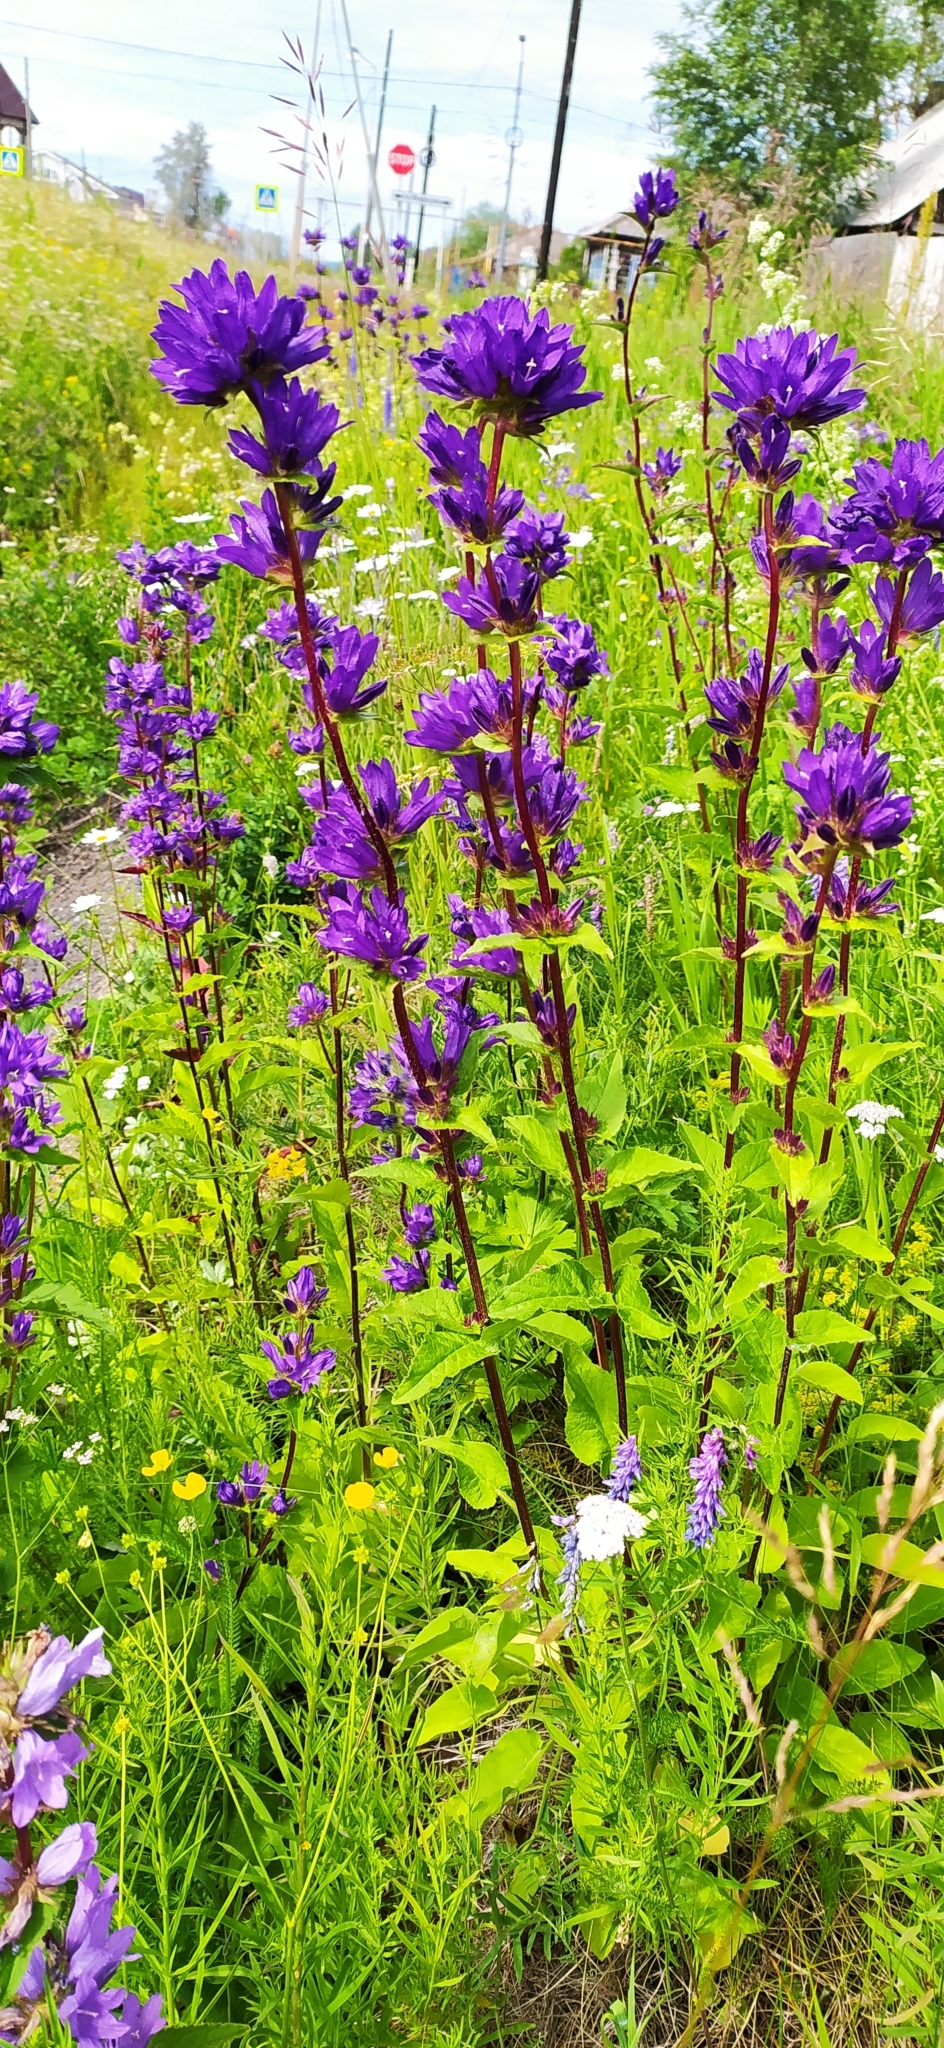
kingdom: Plantae
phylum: Tracheophyta
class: Magnoliopsida
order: Asterales
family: Campanulaceae
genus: Campanula
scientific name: Campanula glomerata
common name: Clustered bellflower
